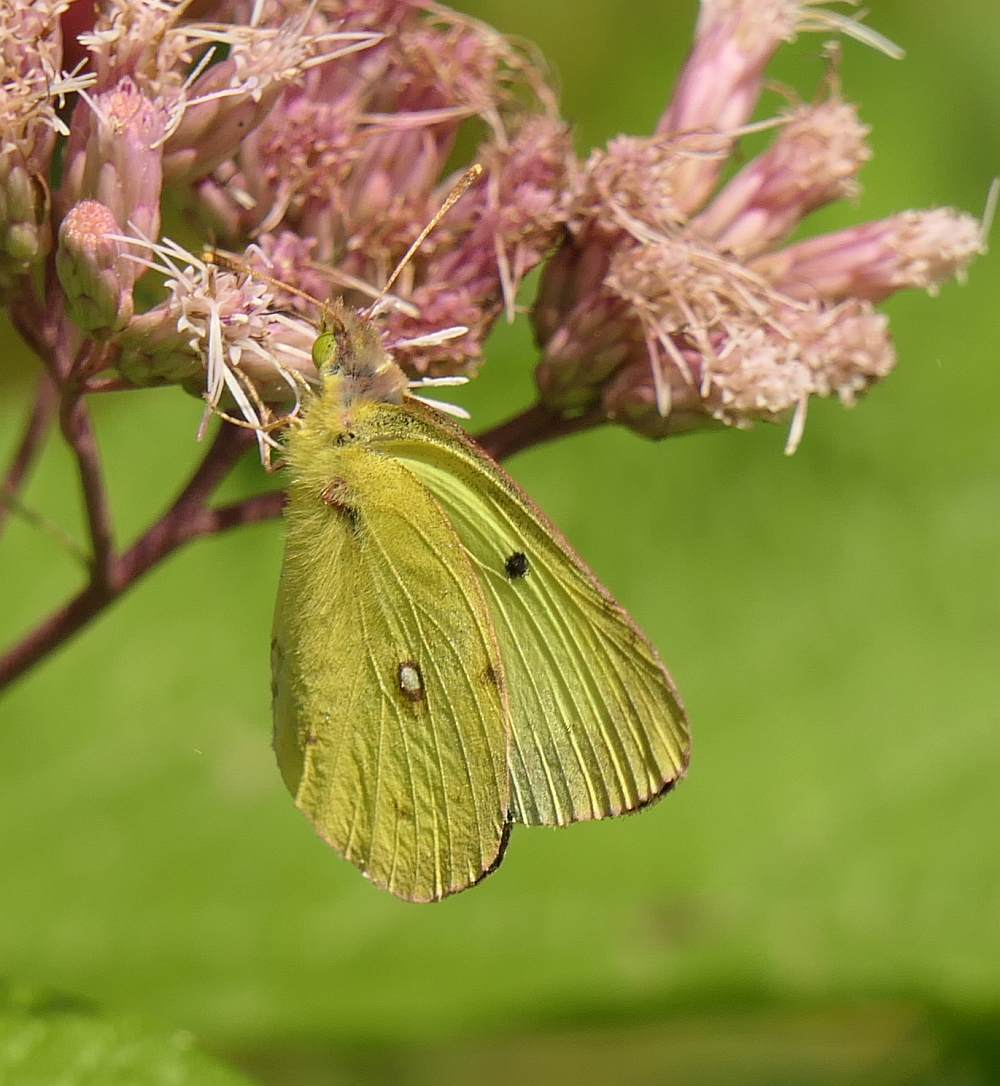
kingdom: Animalia
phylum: Arthropoda
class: Insecta
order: Lepidoptera
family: Pieridae
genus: Colias
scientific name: Colias philodice
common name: Clouded sulphur
